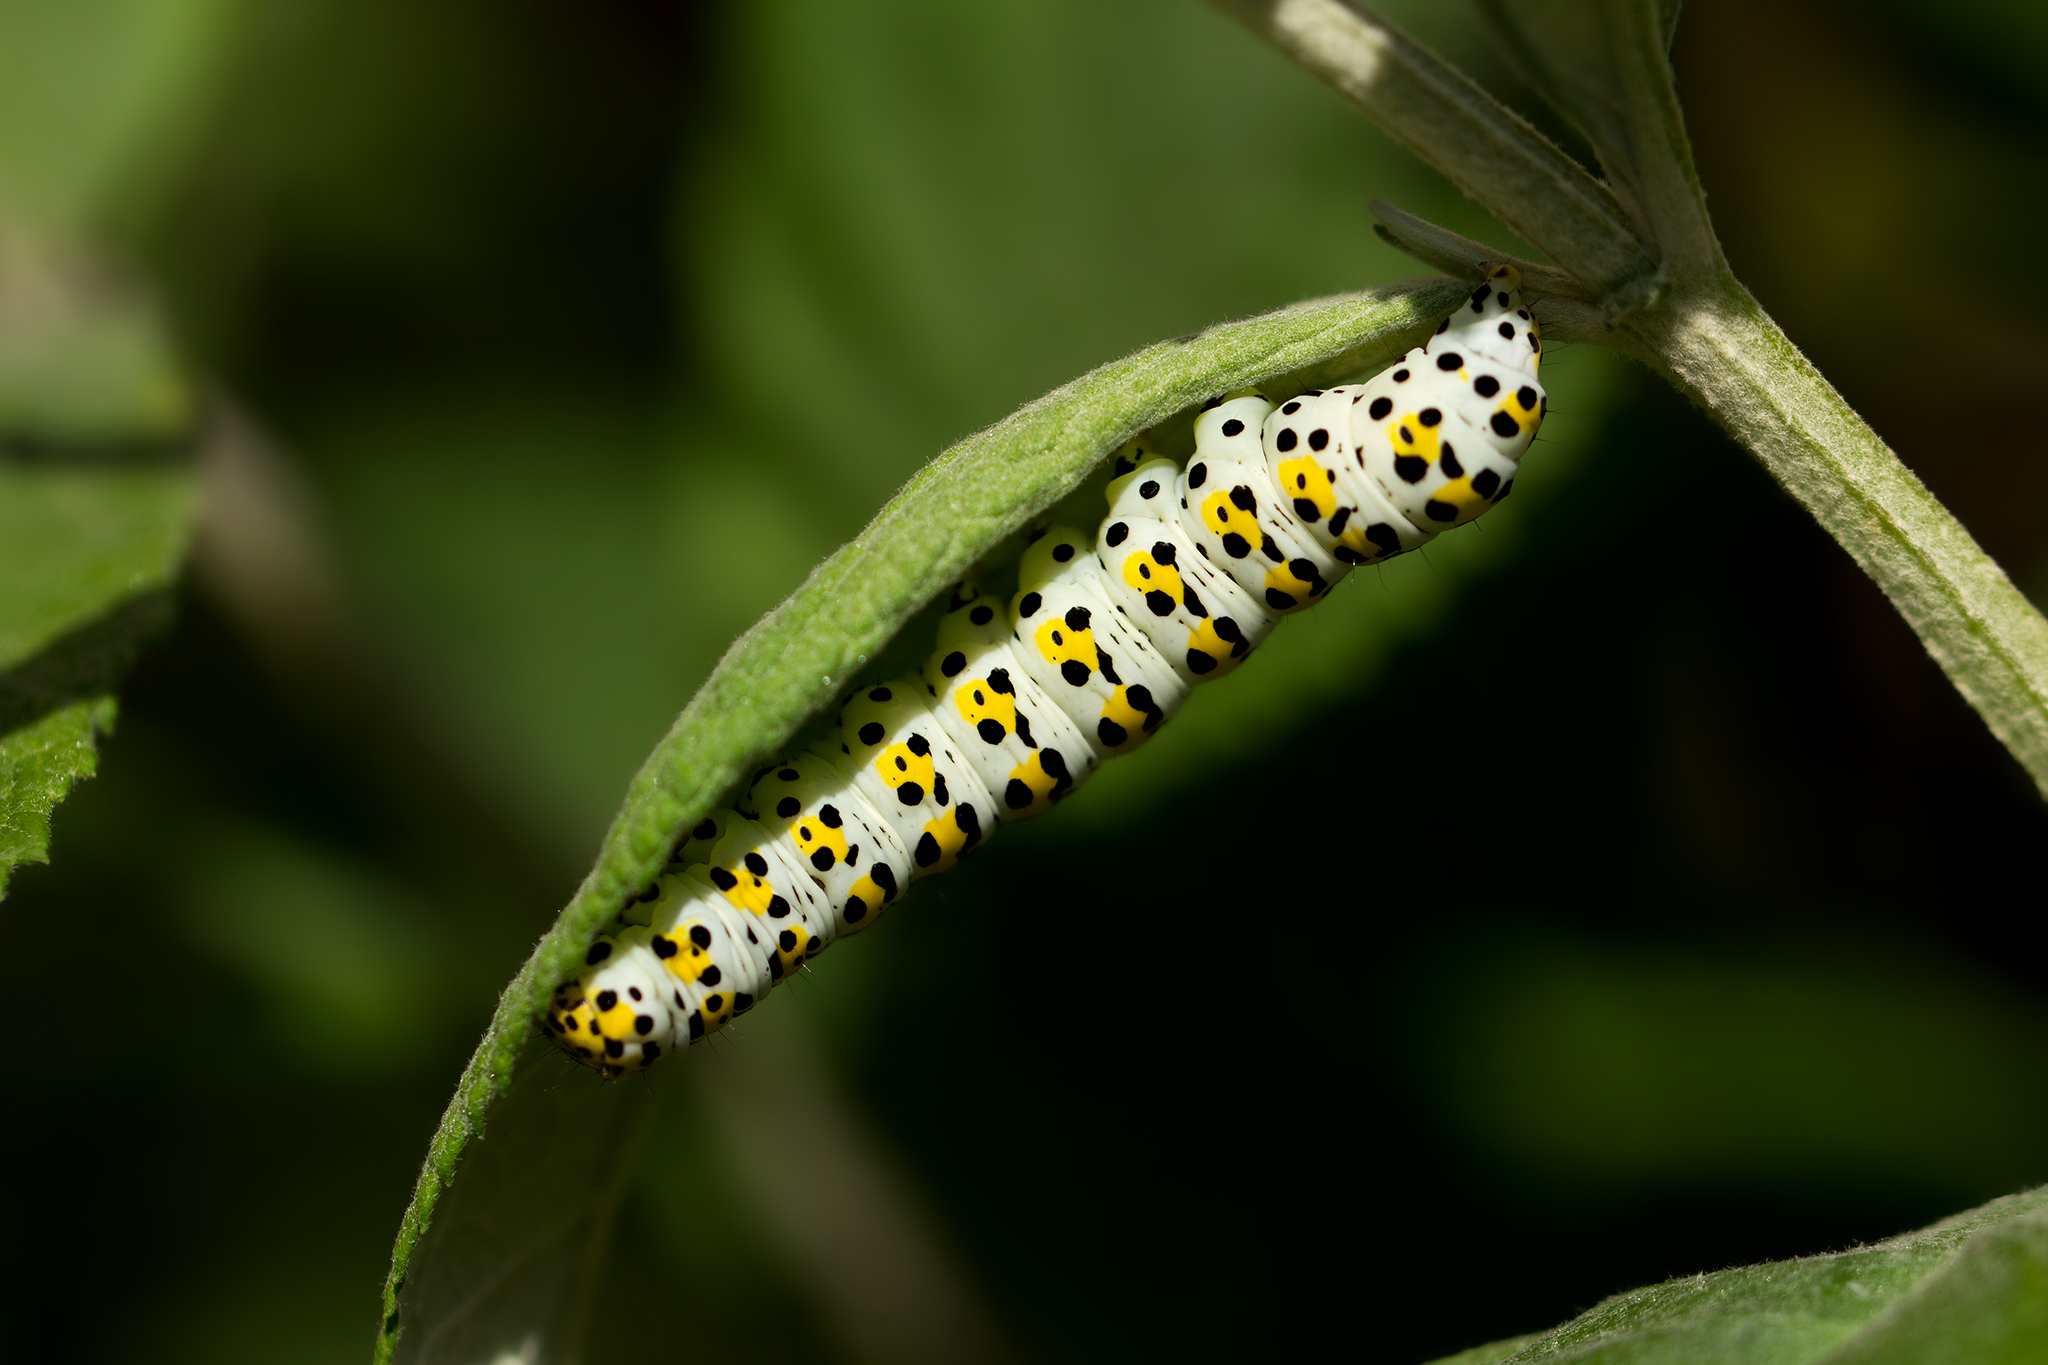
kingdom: Animalia
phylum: Arthropoda
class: Insecta
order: Lepidoptera
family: Noctuidae
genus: Cucullia
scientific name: Cucullia verbasci
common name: Mullein
